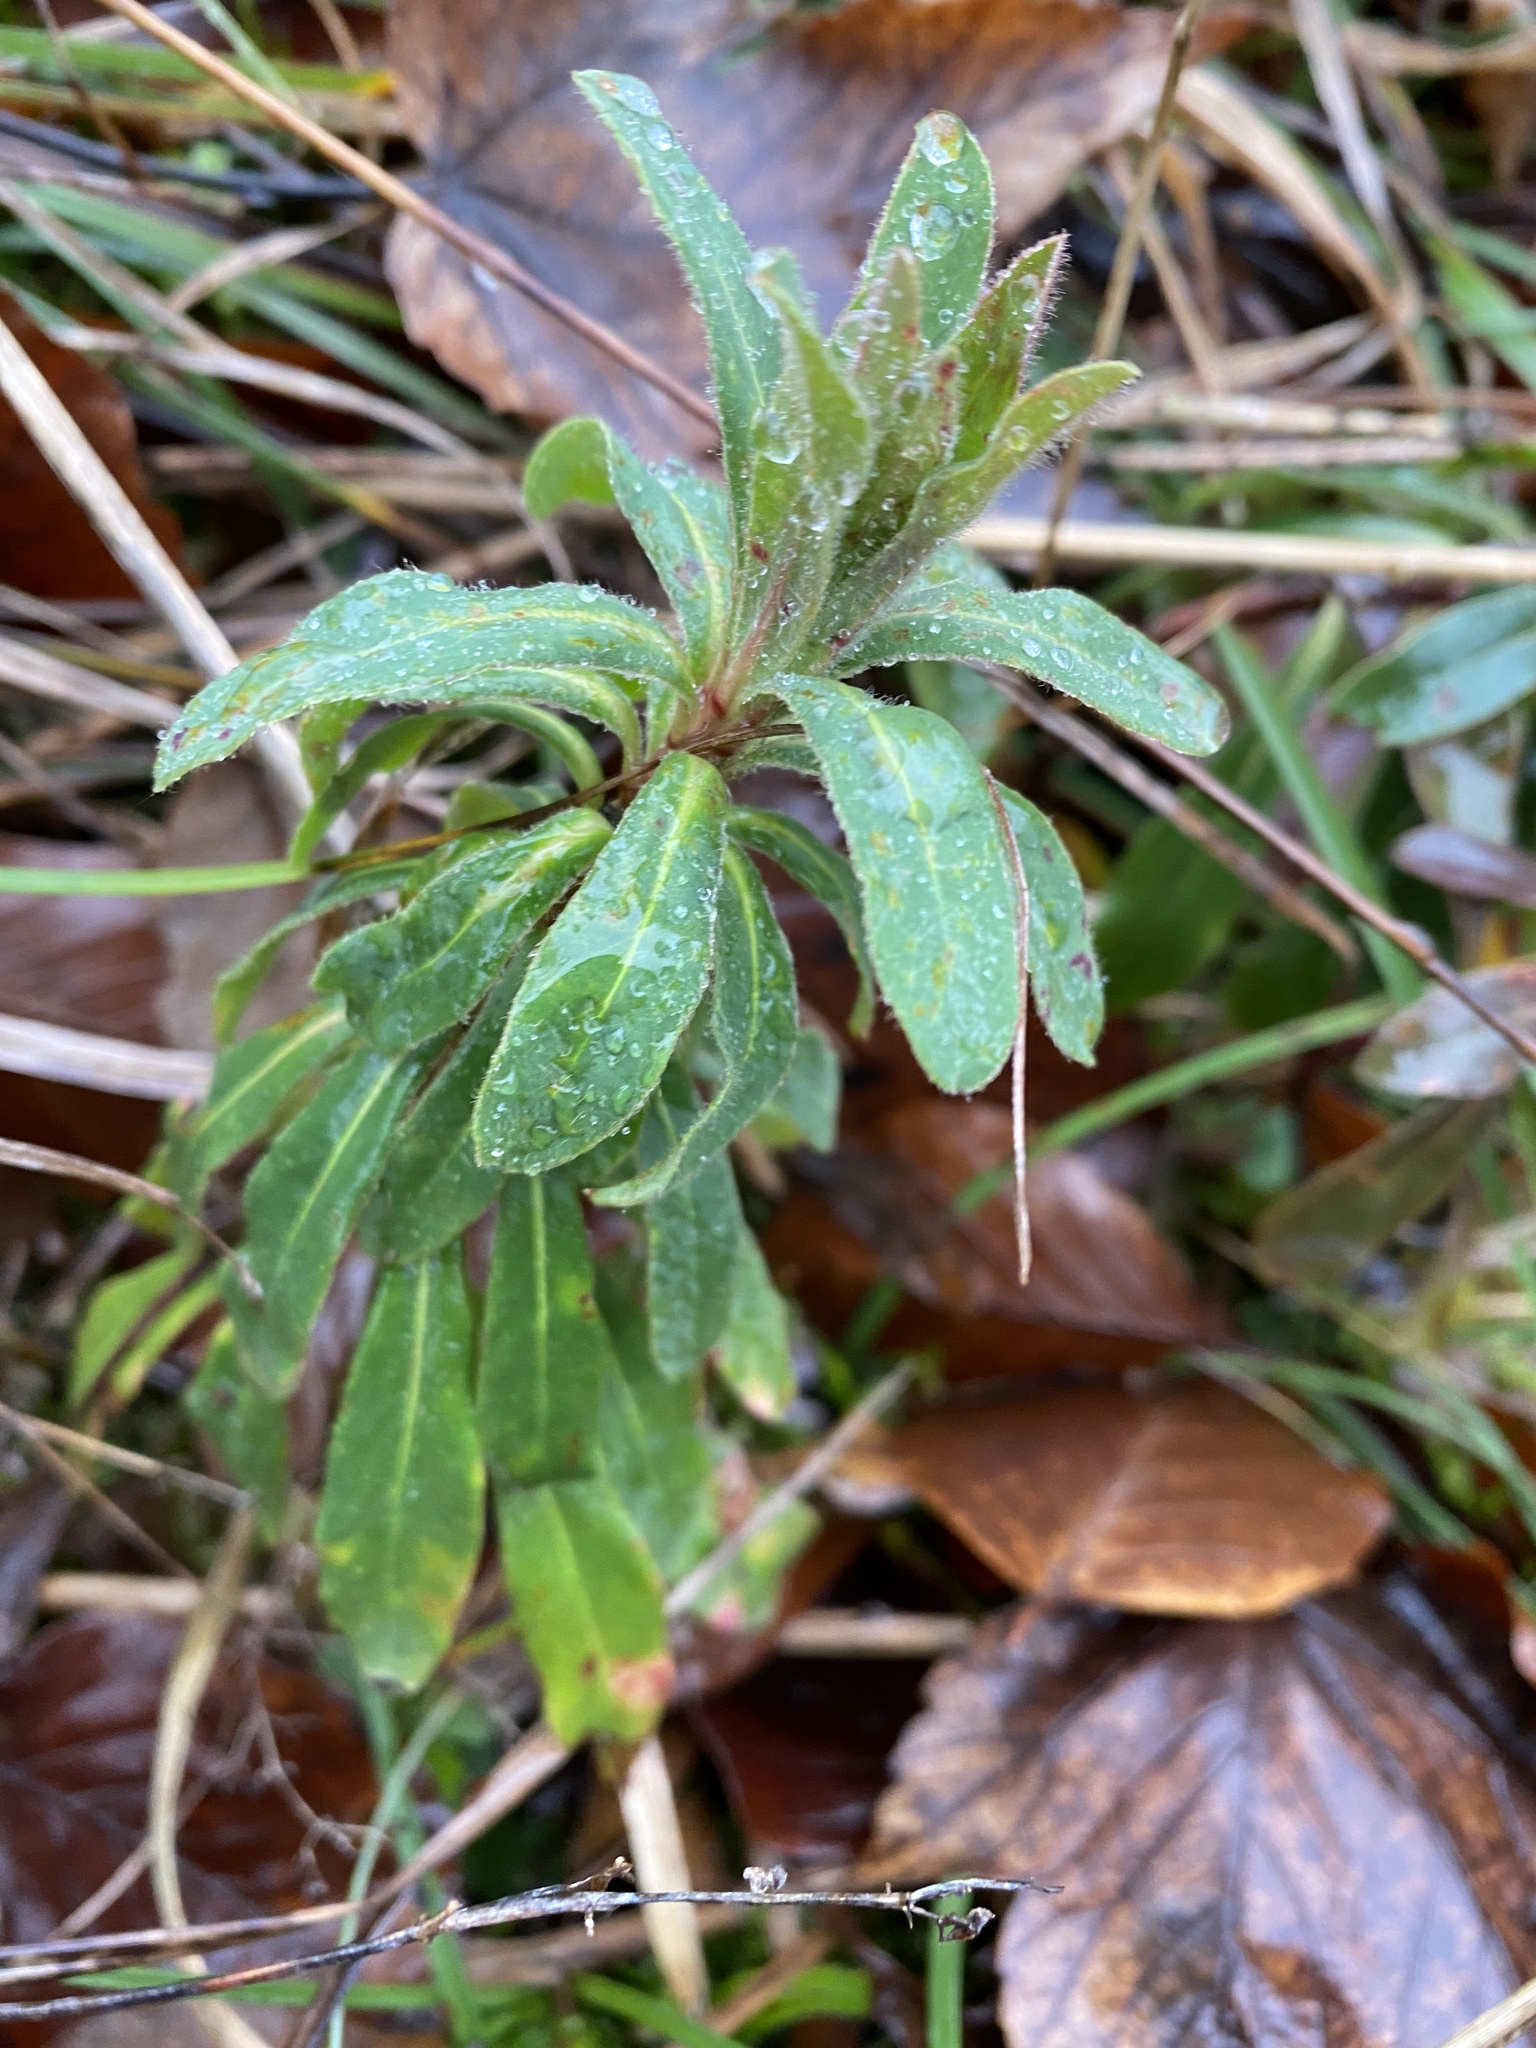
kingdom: Plantae
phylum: Tracheophyta
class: Magnoliopsida
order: Malpighiales
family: Euphorbiaceae
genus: Euphorbia
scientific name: Euphorbia amygdaloides
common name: Wood spurge
